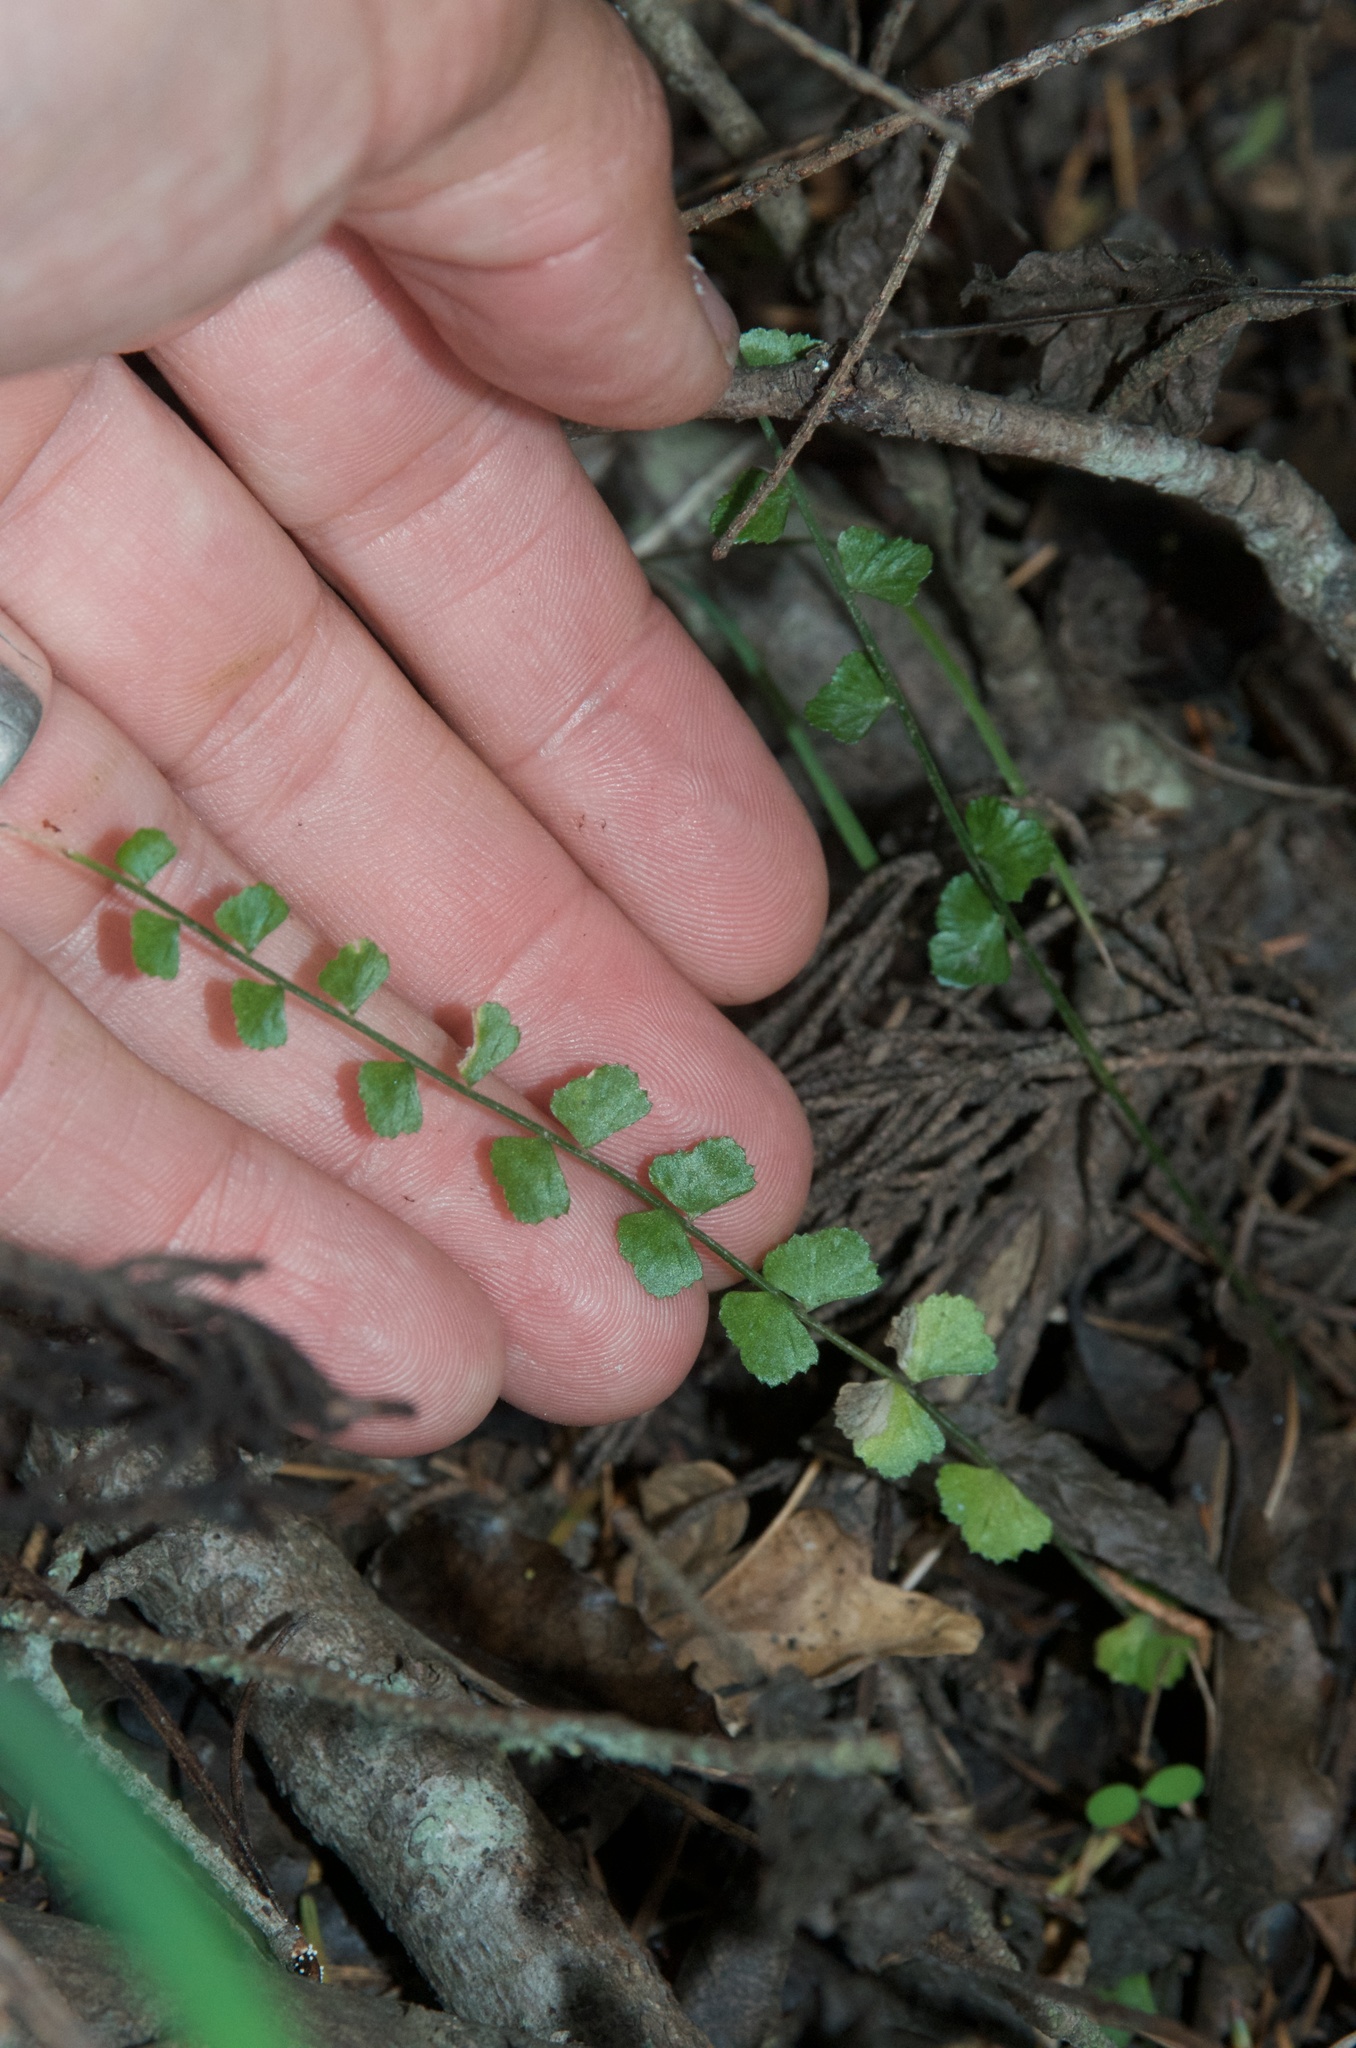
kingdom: Plantae
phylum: Tracheophyta
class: Polypodiopsida
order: Polypodiales
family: Aspleniaceae
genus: Asplenium
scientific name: Asplenium flabellifolium
